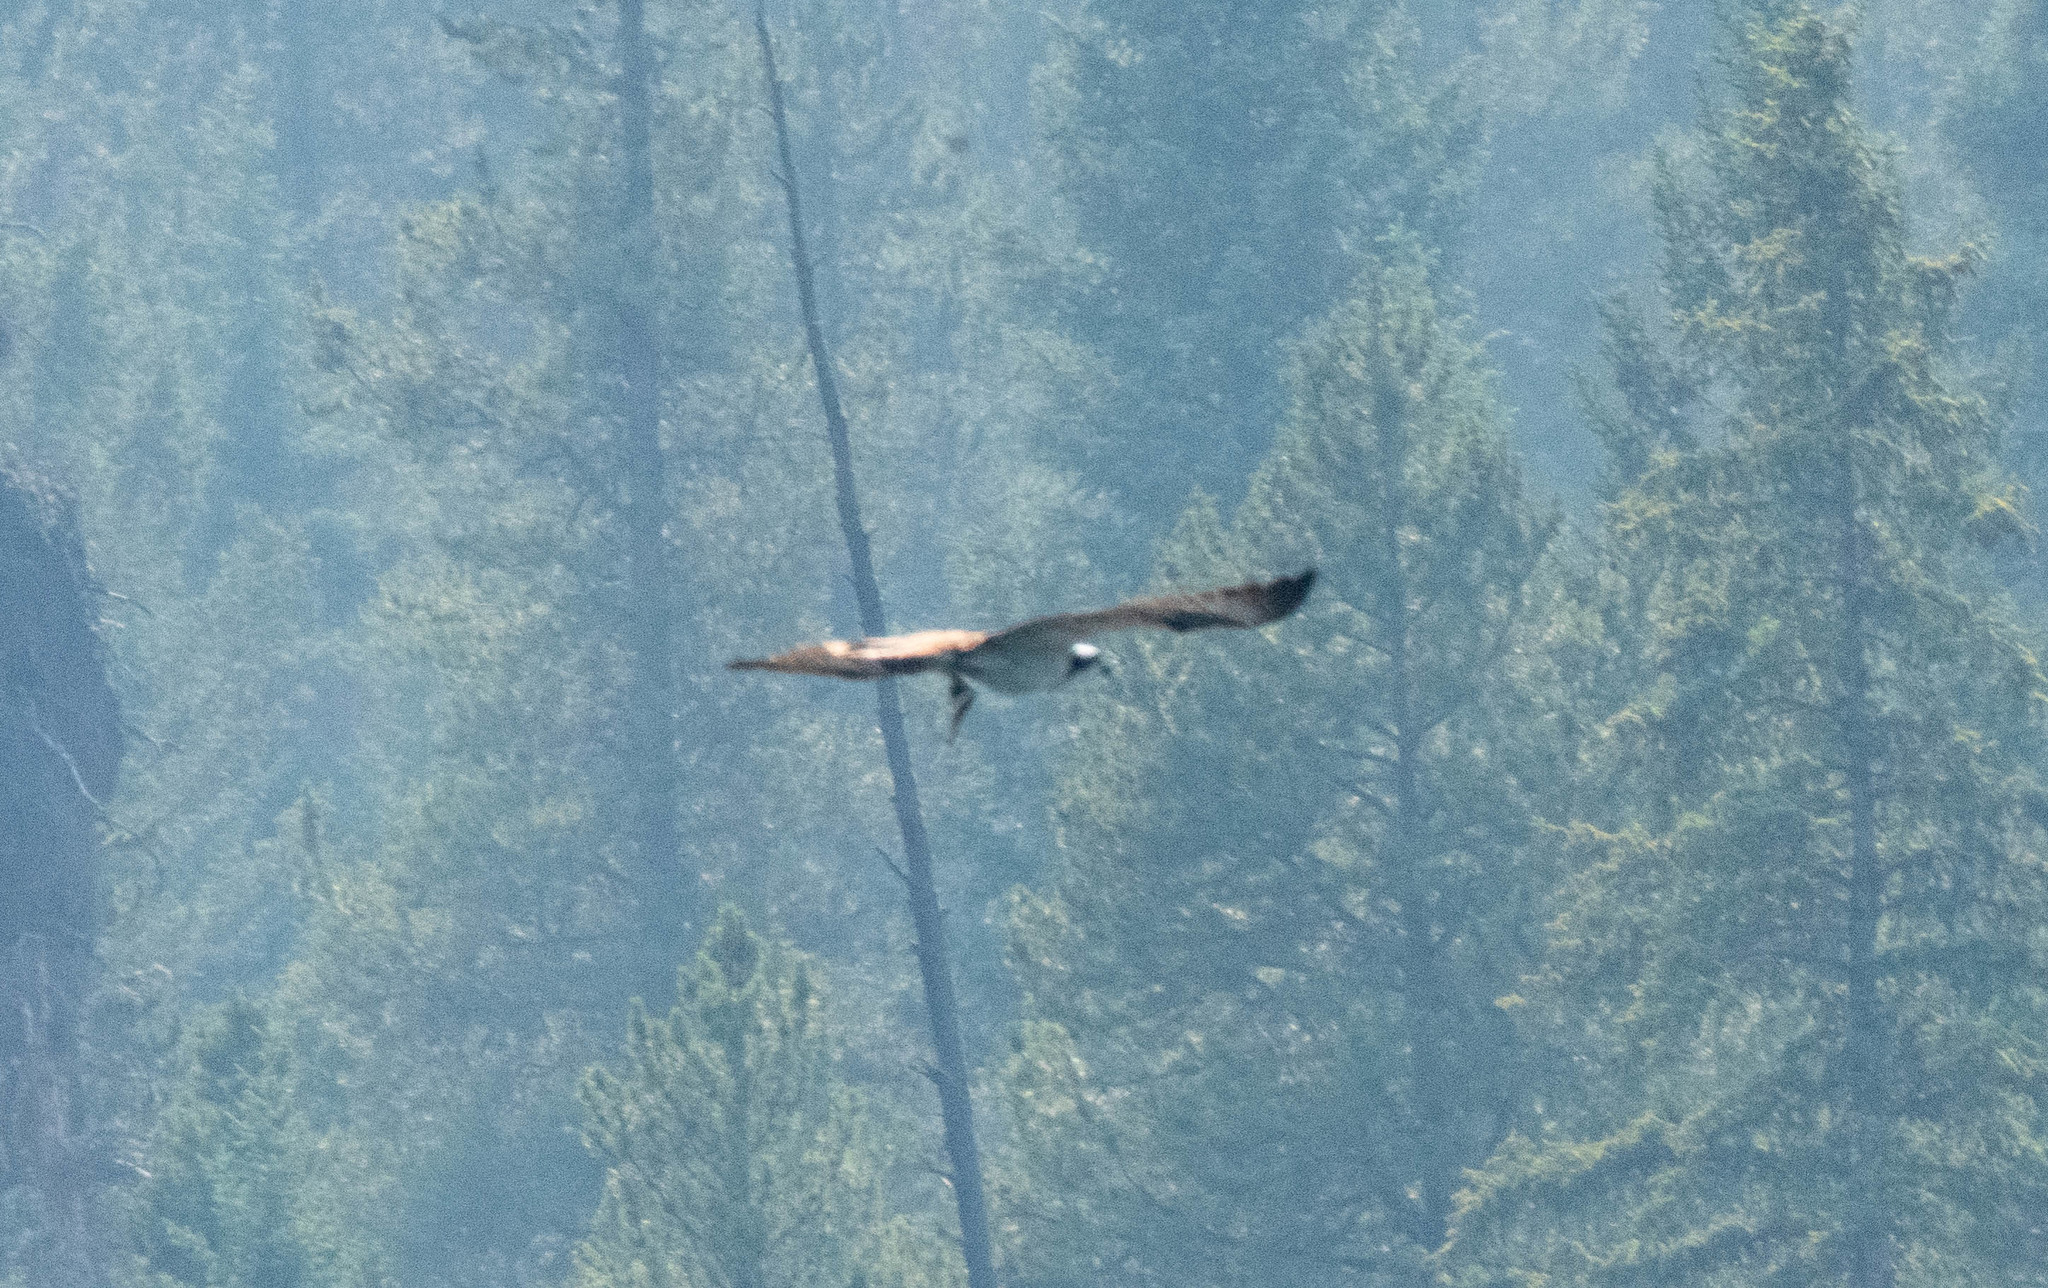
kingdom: Animalia
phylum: Chordata
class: Aves
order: Accipitriformes
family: Pandionidae
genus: Pandion
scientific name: Pandion haliaetus
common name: Osprey
